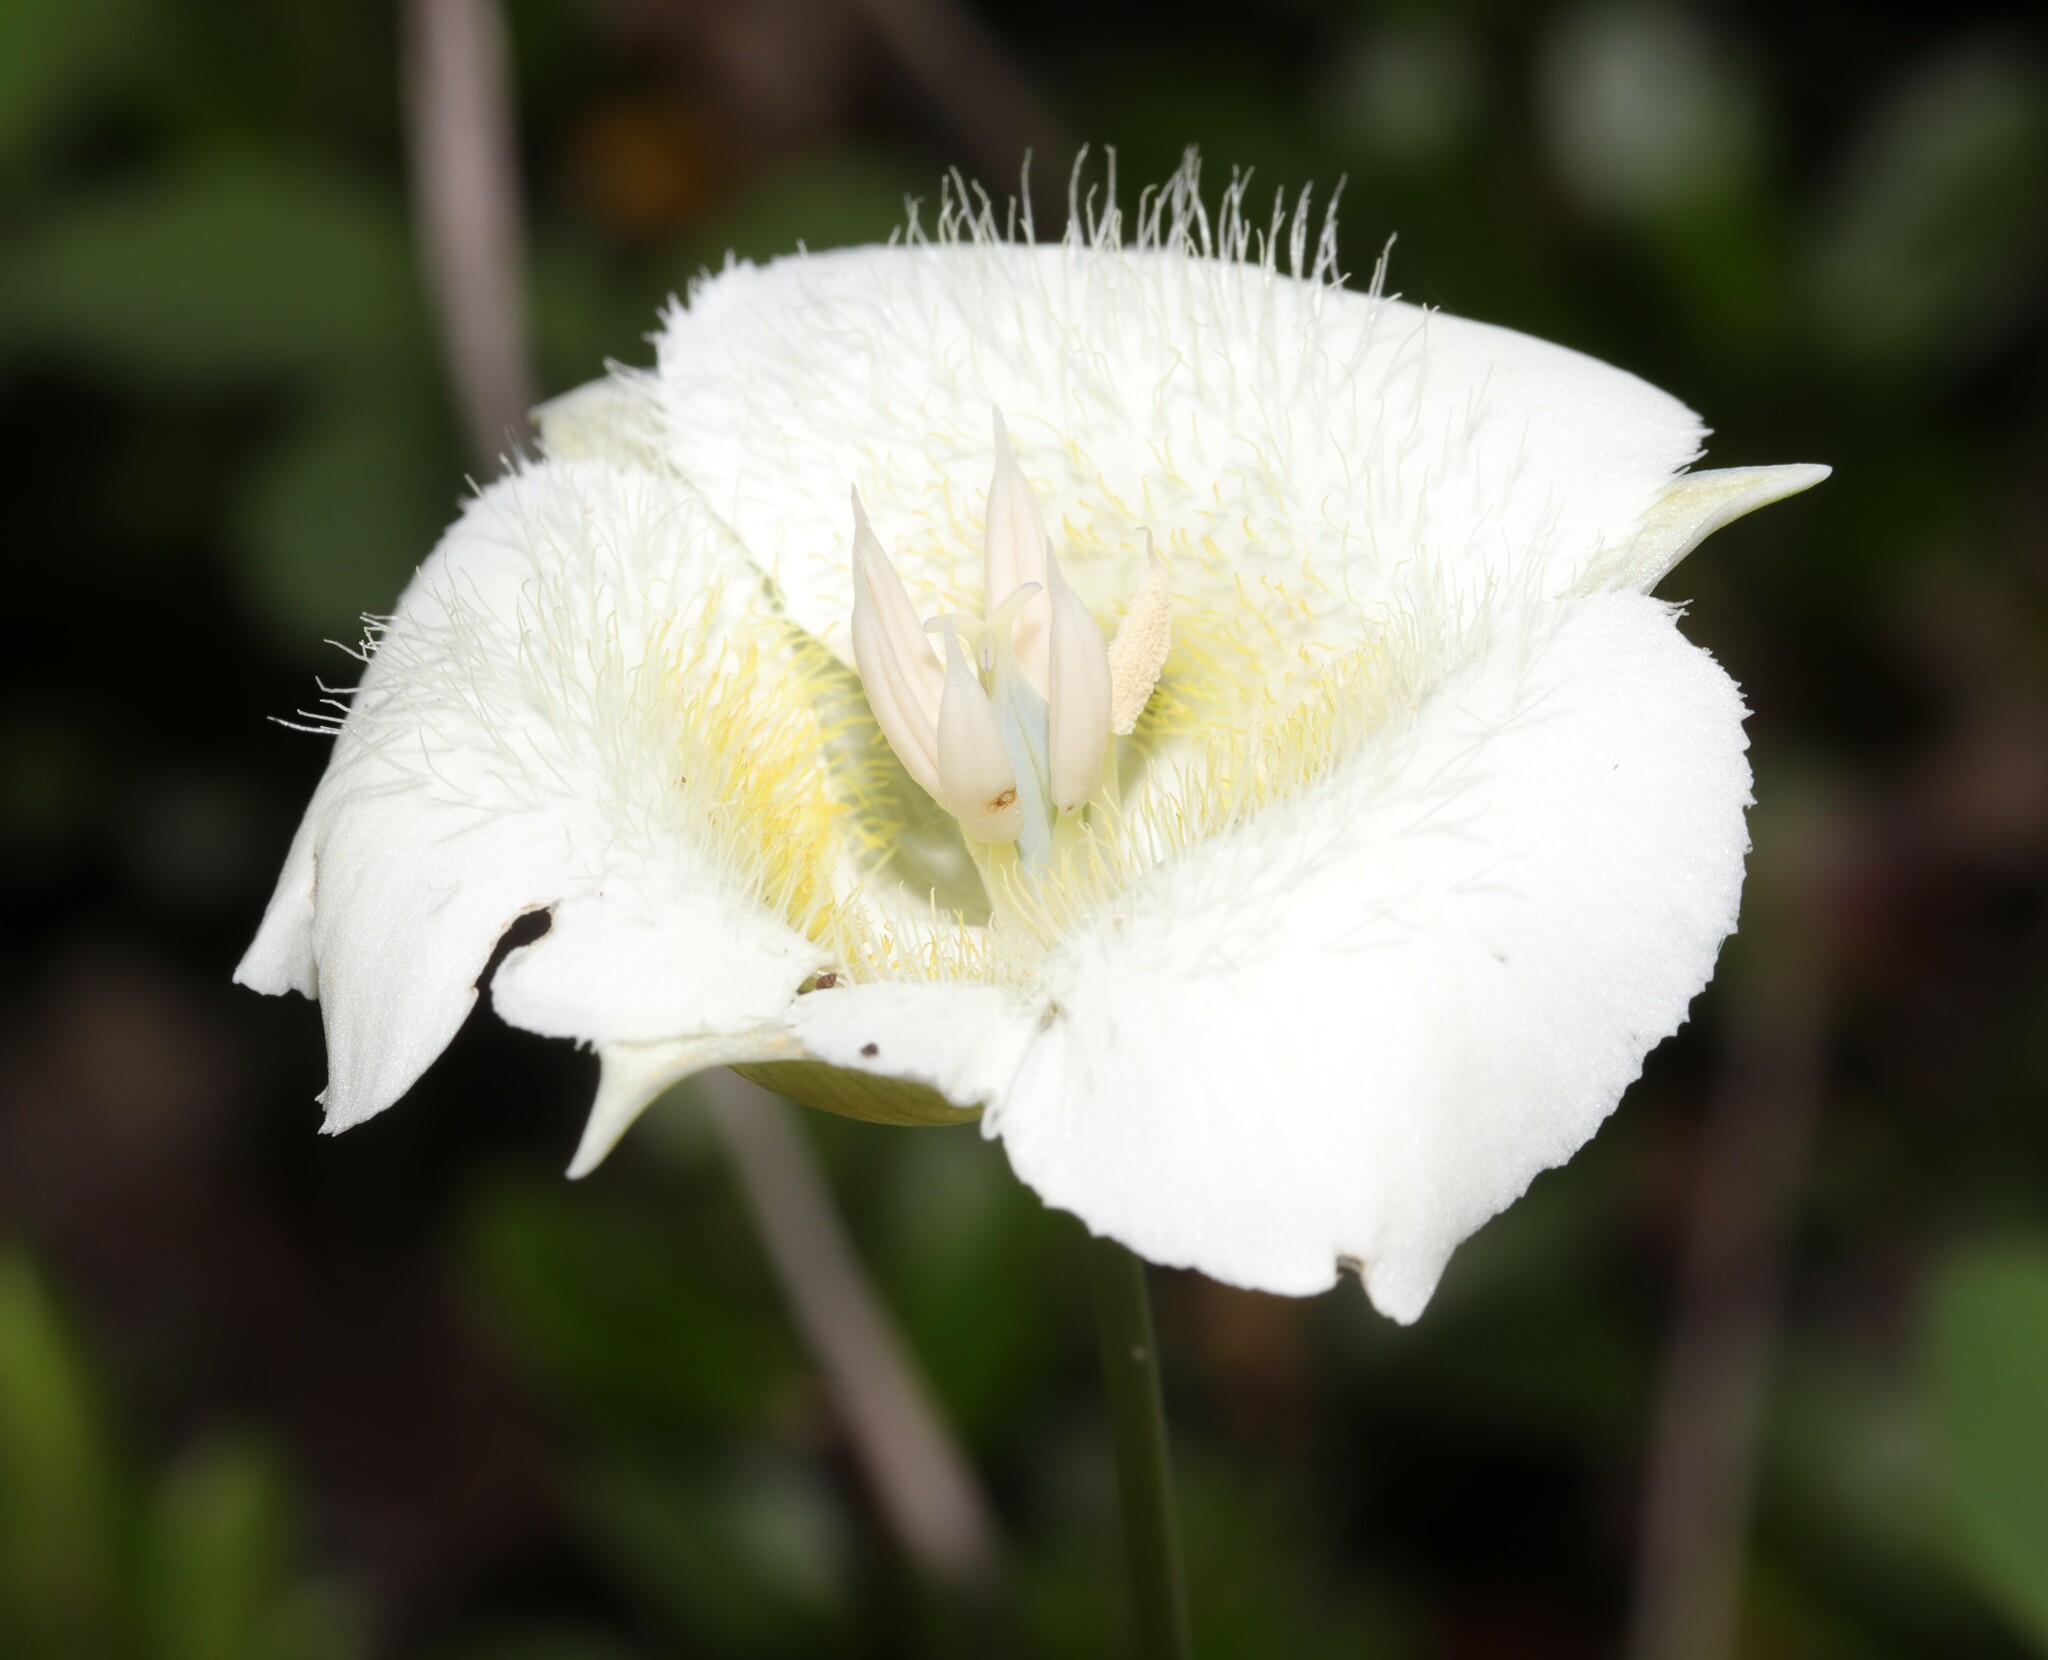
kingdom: Plantae
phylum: Tracheophyta
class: Liliopsida
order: Liliales
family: Liliaceae
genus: Calochortus
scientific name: Calochortus apiculatus
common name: Baker's mariposa lily
